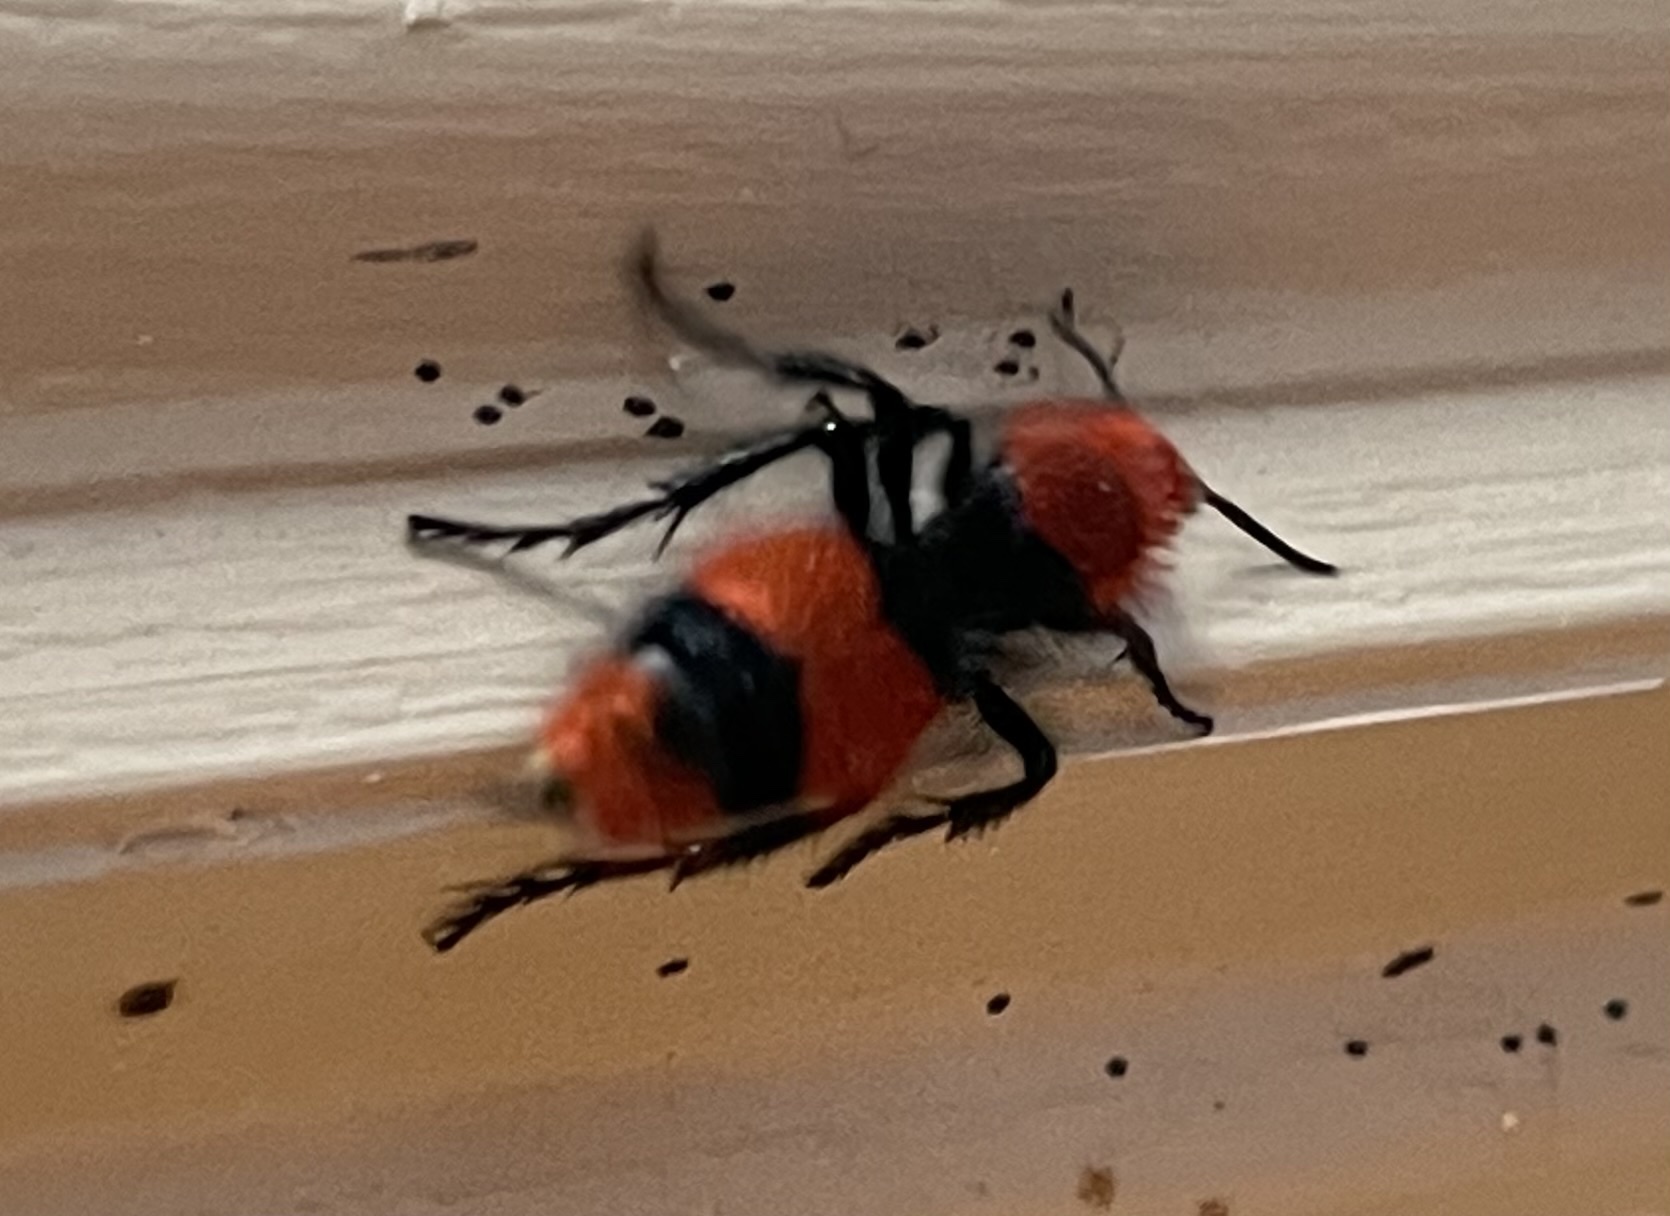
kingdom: Animalia
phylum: Arthropoda
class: Insecta
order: Hymenoptera
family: Mutillidae
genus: Dasymutilla
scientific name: Dasymutilla occidentalis
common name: Common eastern velvet ant
